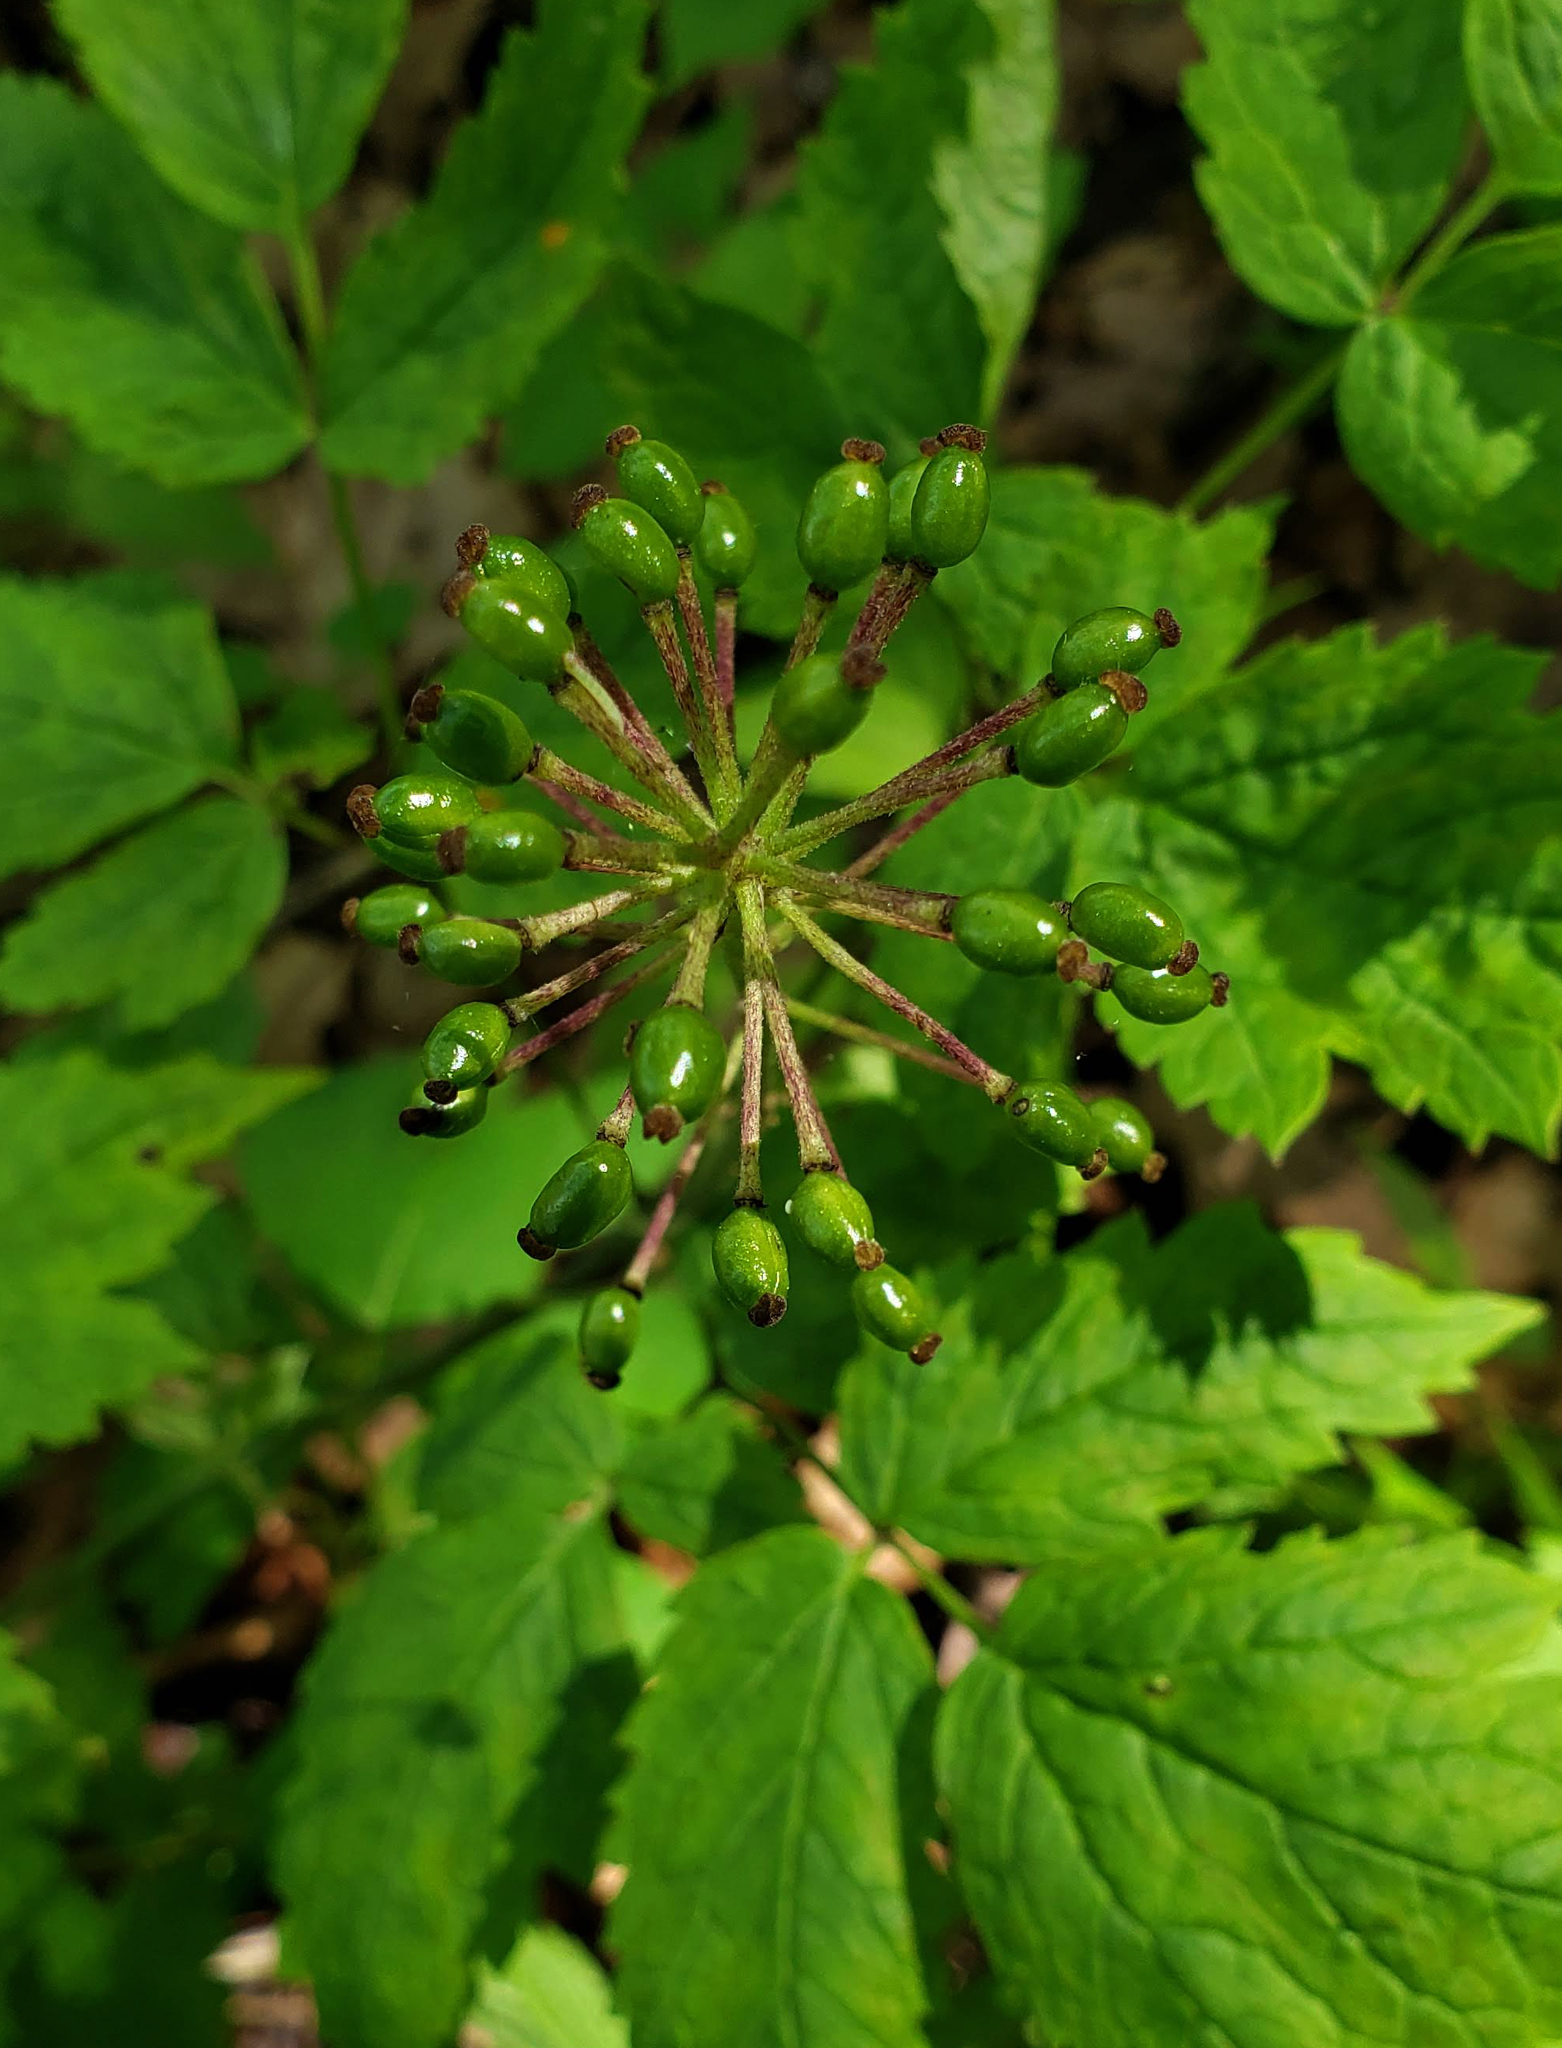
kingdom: Plantae
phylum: Tracheophyta
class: Magnoliopsida
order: Ranunculales
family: Ranunculaceae
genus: Actaea
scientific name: Actaea rubra
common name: Red baneberry
